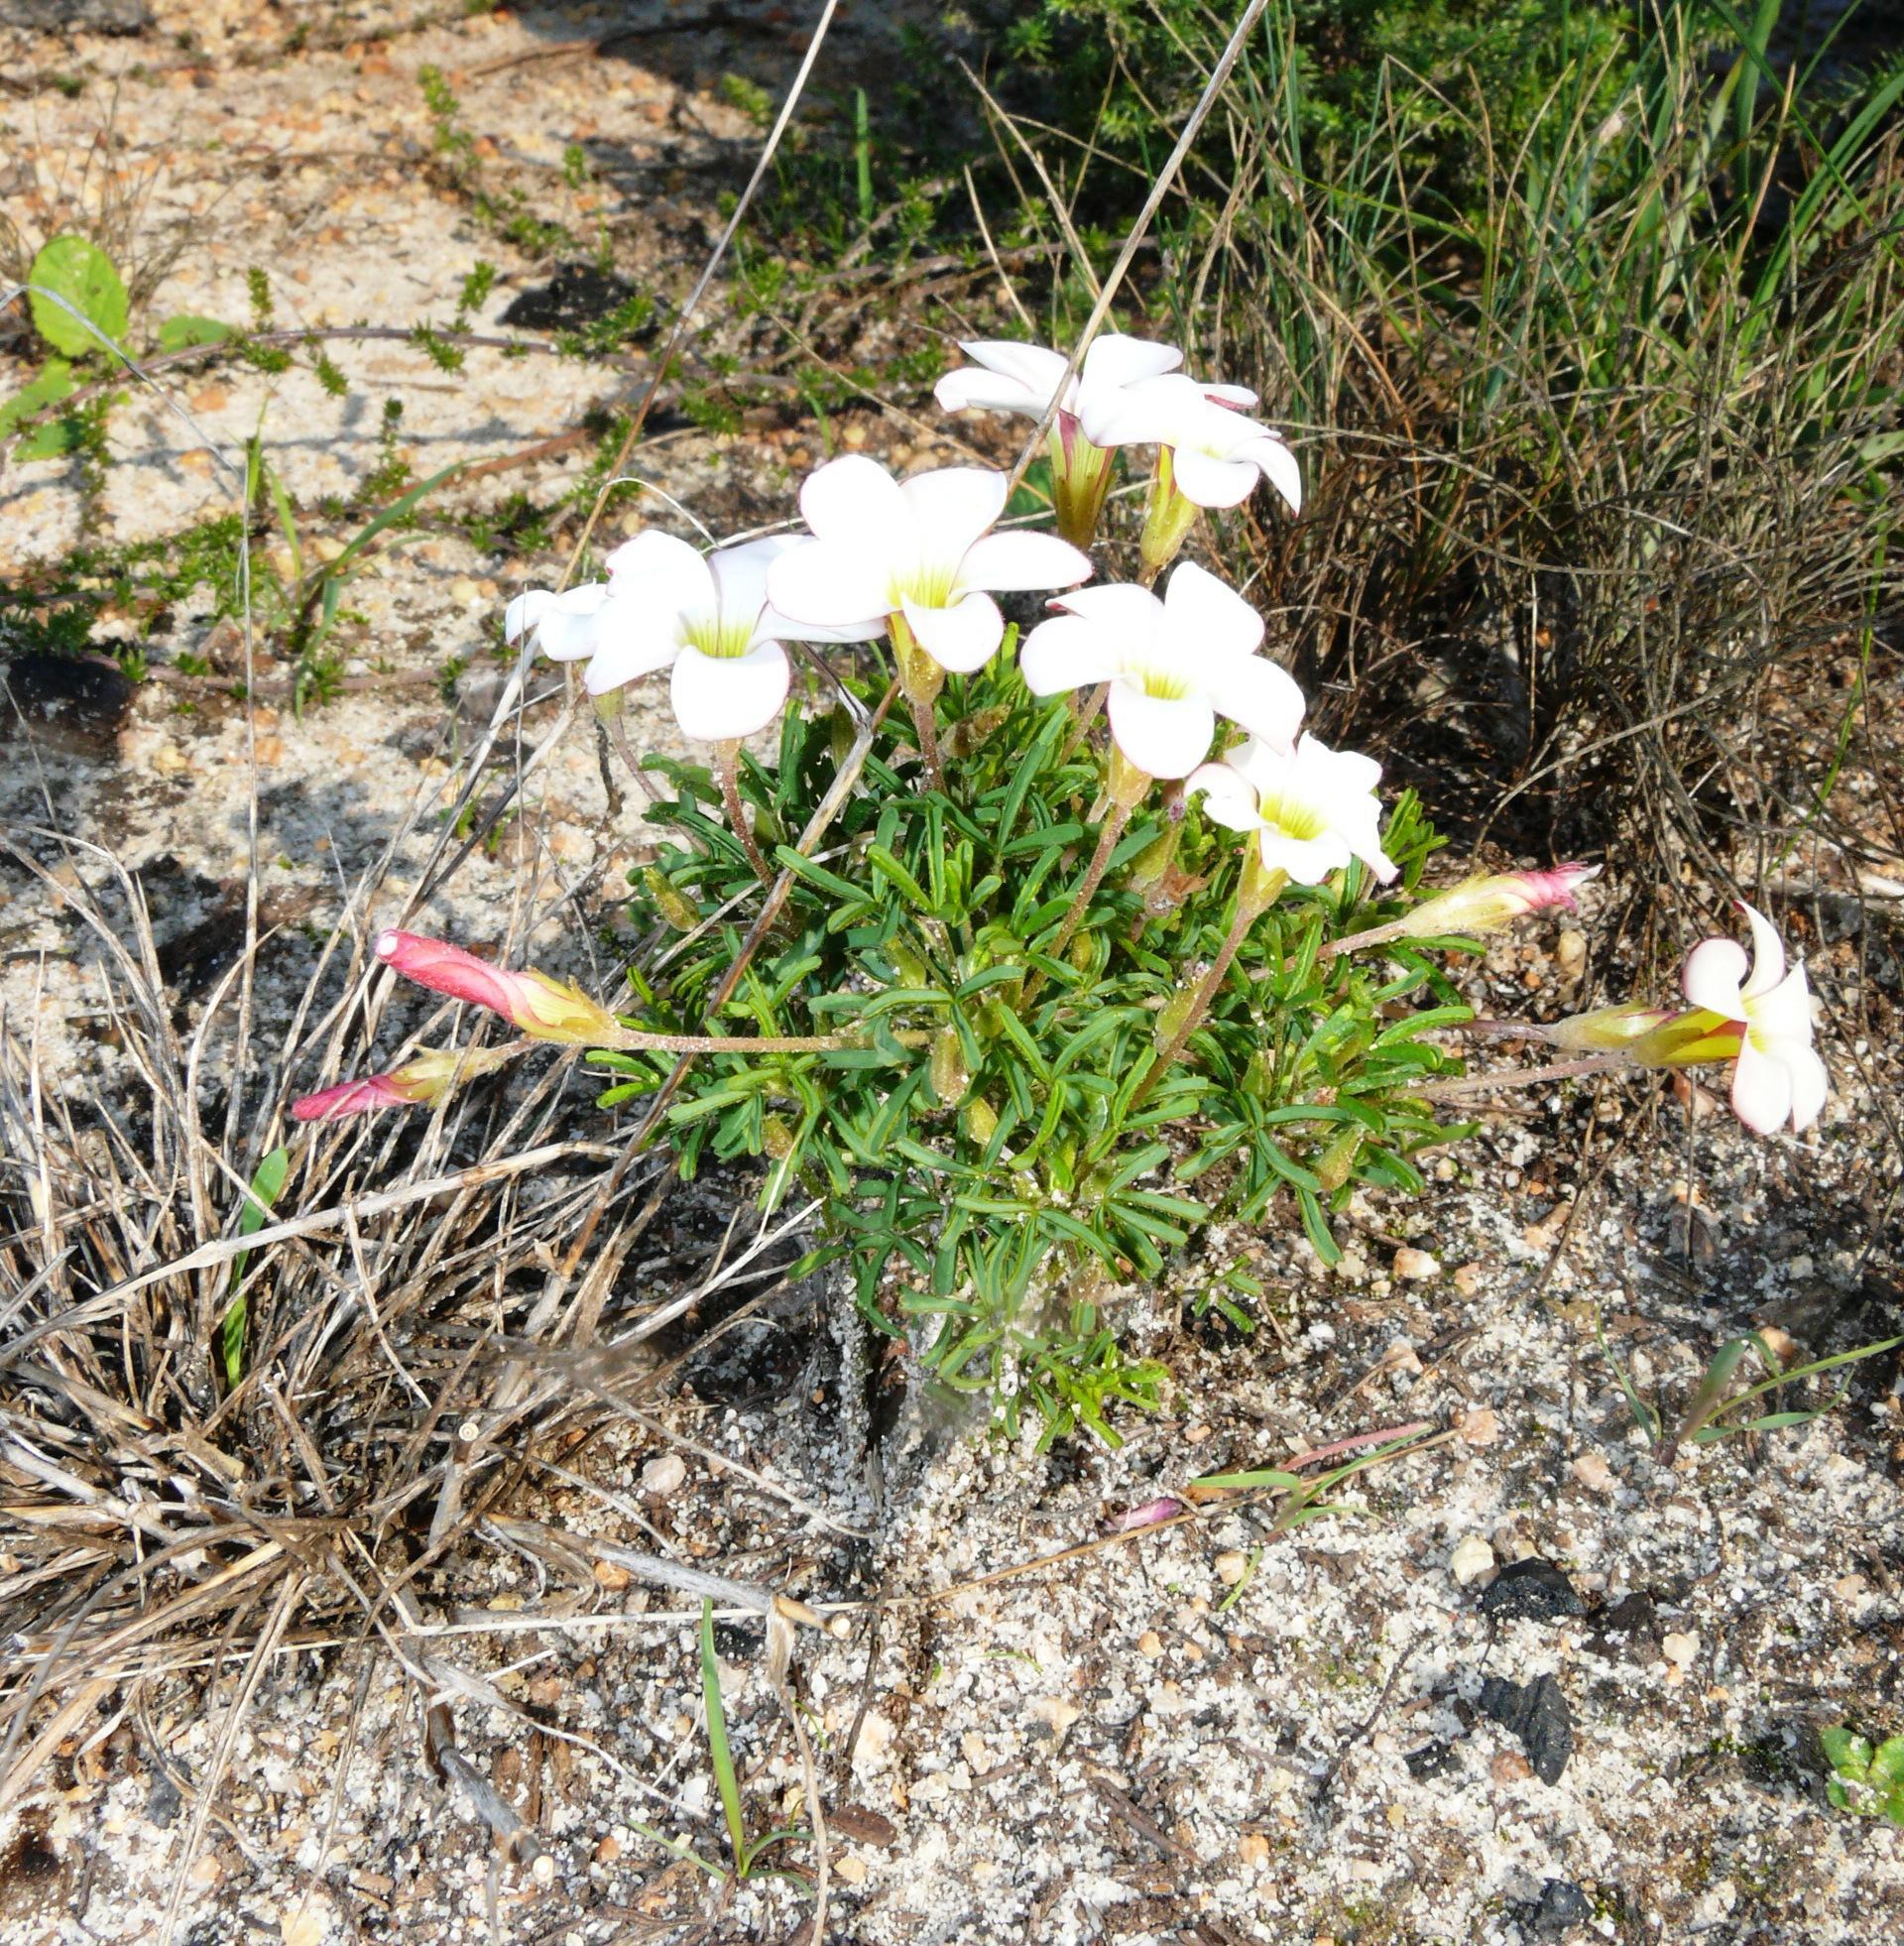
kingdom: Plantae
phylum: Tracheophyta
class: Magnoliopsida
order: Oxalidales
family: Oxalidaceae
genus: Oxalis
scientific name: Oxalis versicolor
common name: Peppermint rock oxalis
